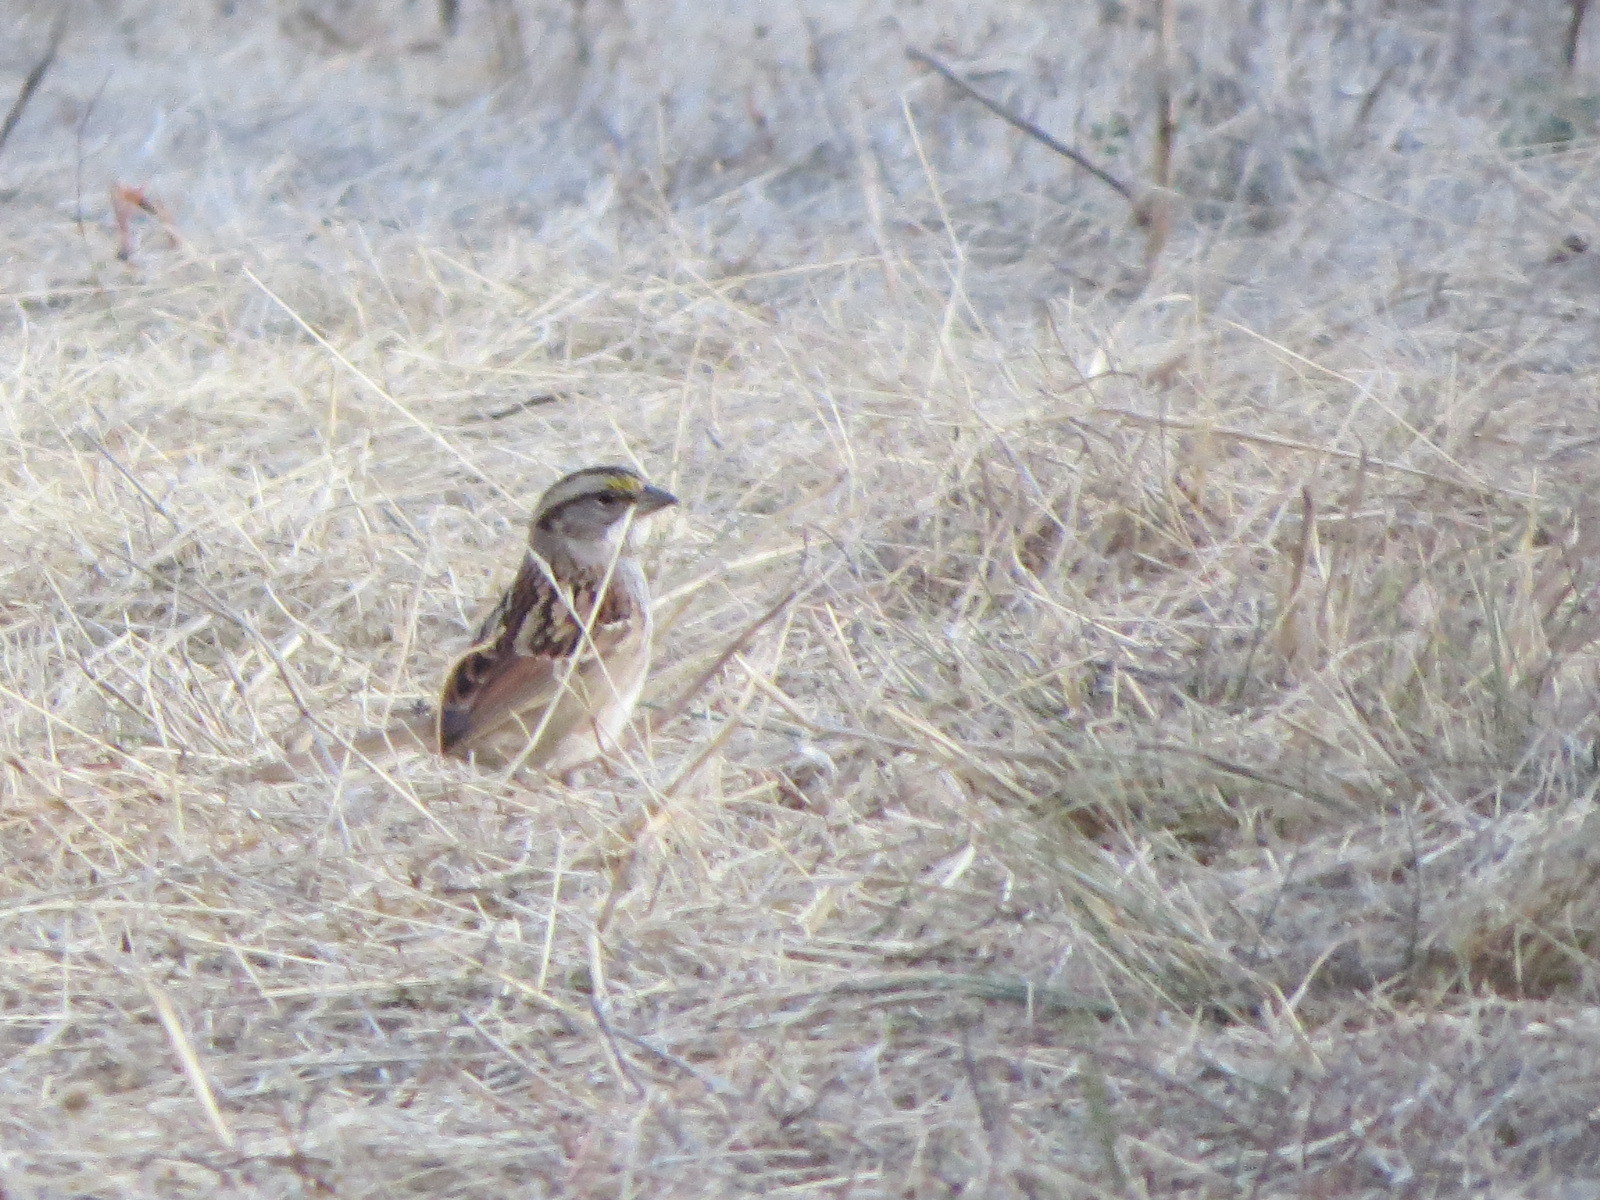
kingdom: Animalia
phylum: Chordata
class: Aves
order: Passeriformes
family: Passerellidae
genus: Zonotrichia
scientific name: Zonotrichia albicollis
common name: White-throated sparrow
